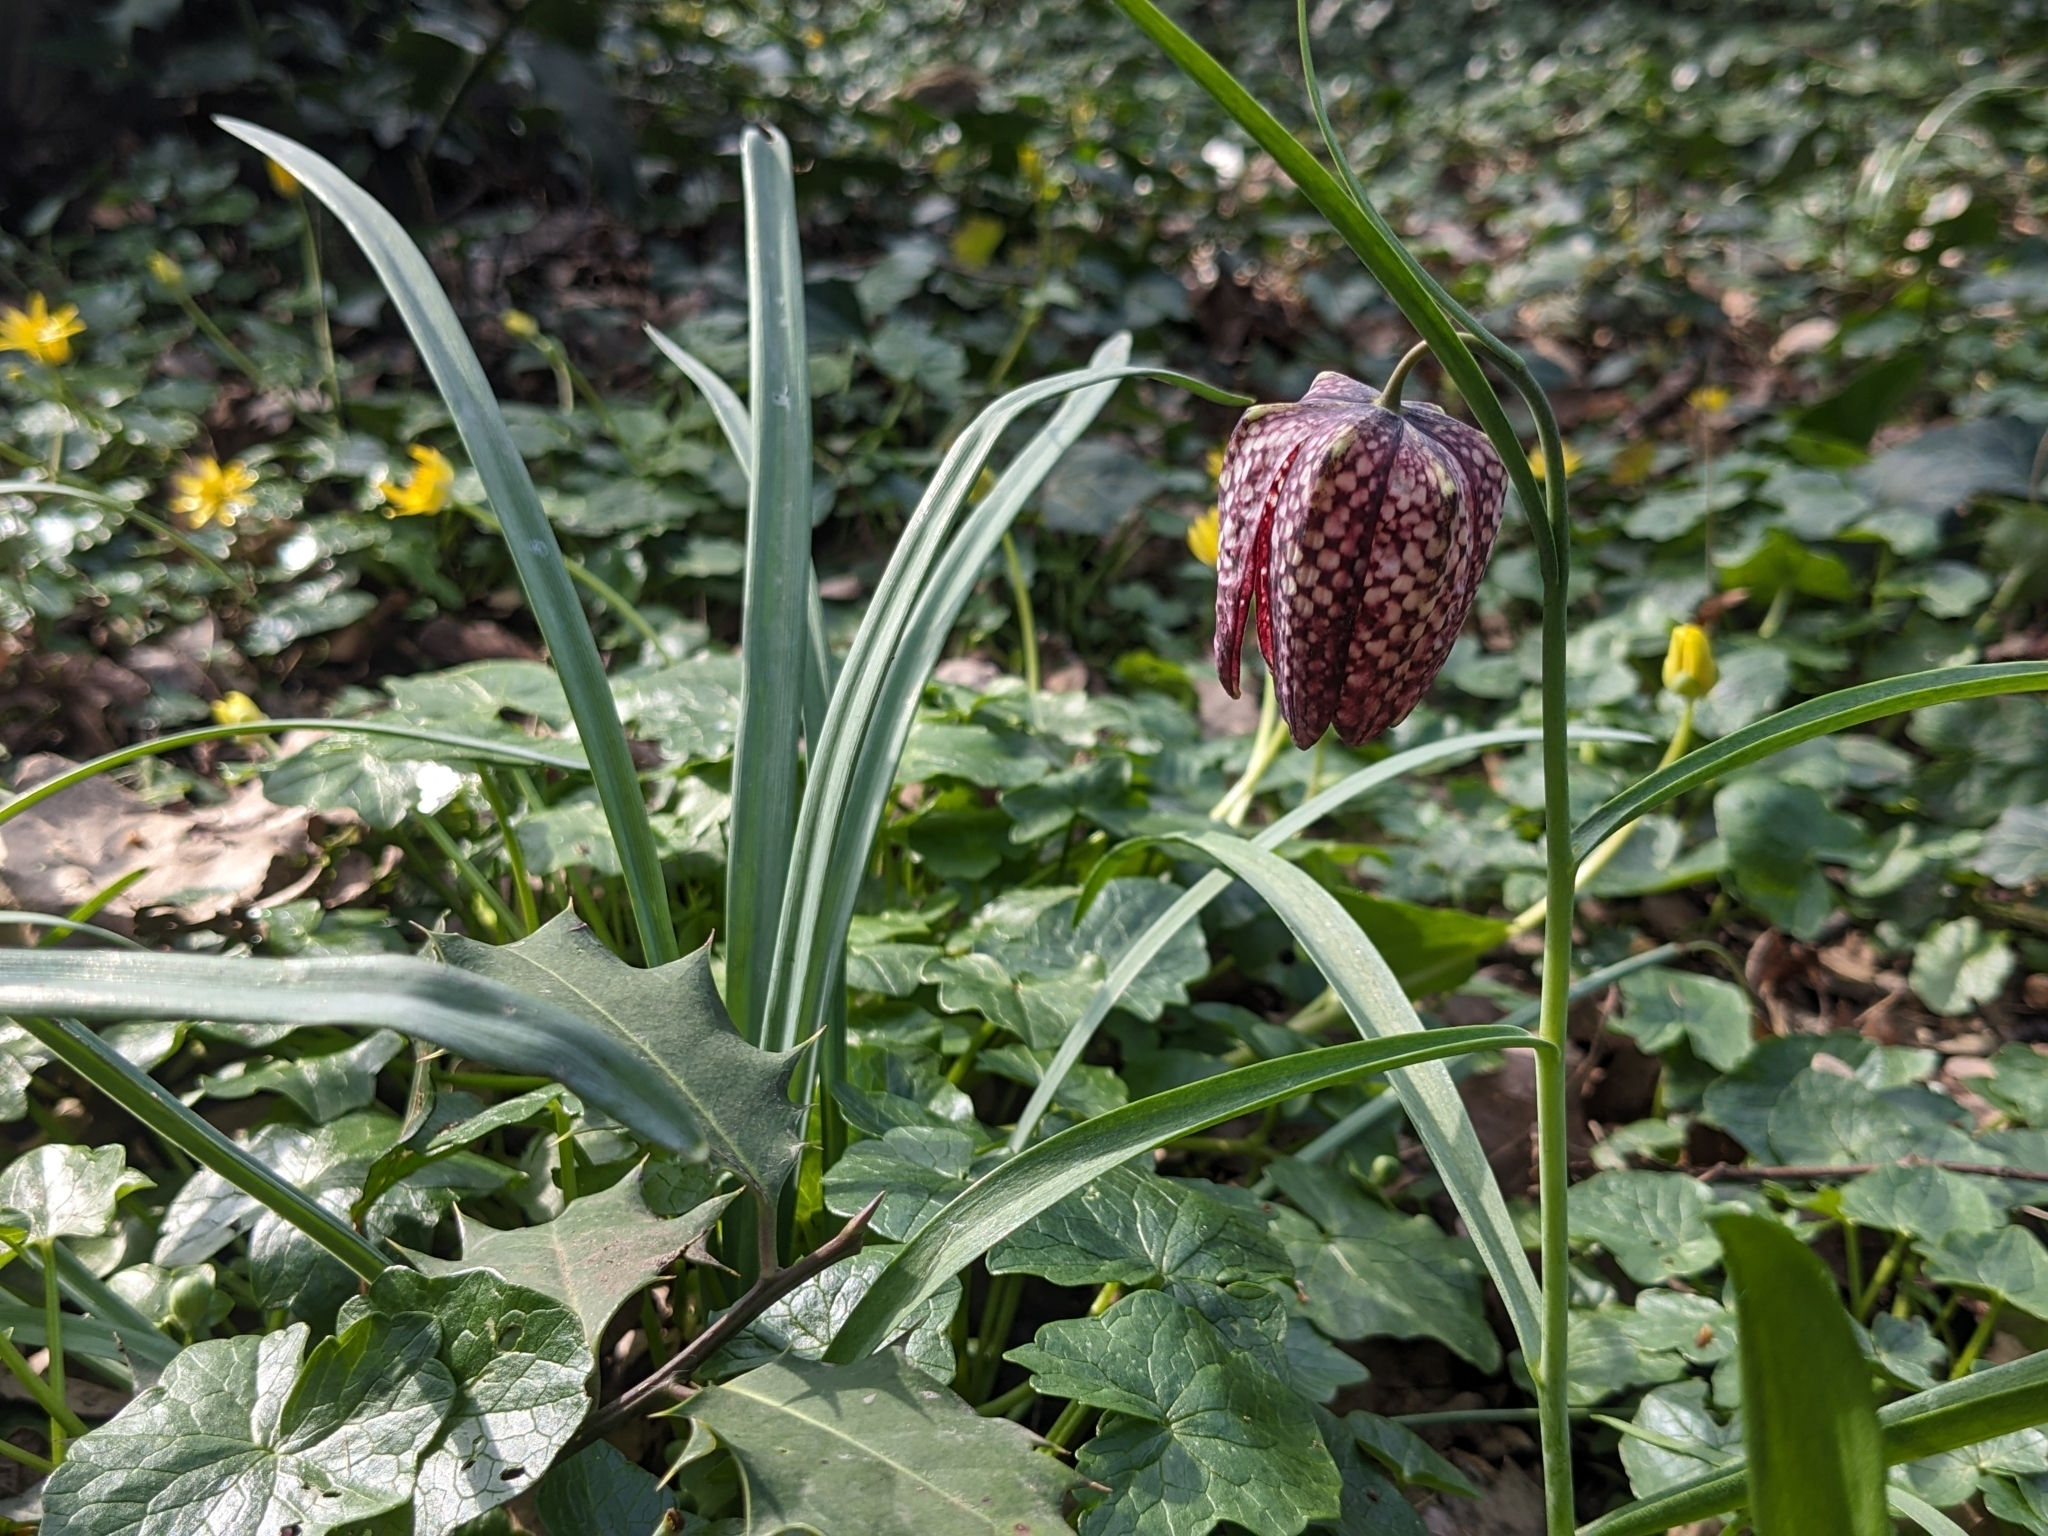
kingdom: Plantae
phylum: Tracheophyta
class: Liliopsida
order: Liliales
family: Liliaceae
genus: Fritillaria
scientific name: Fritillaria meleagris
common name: Fritillary
